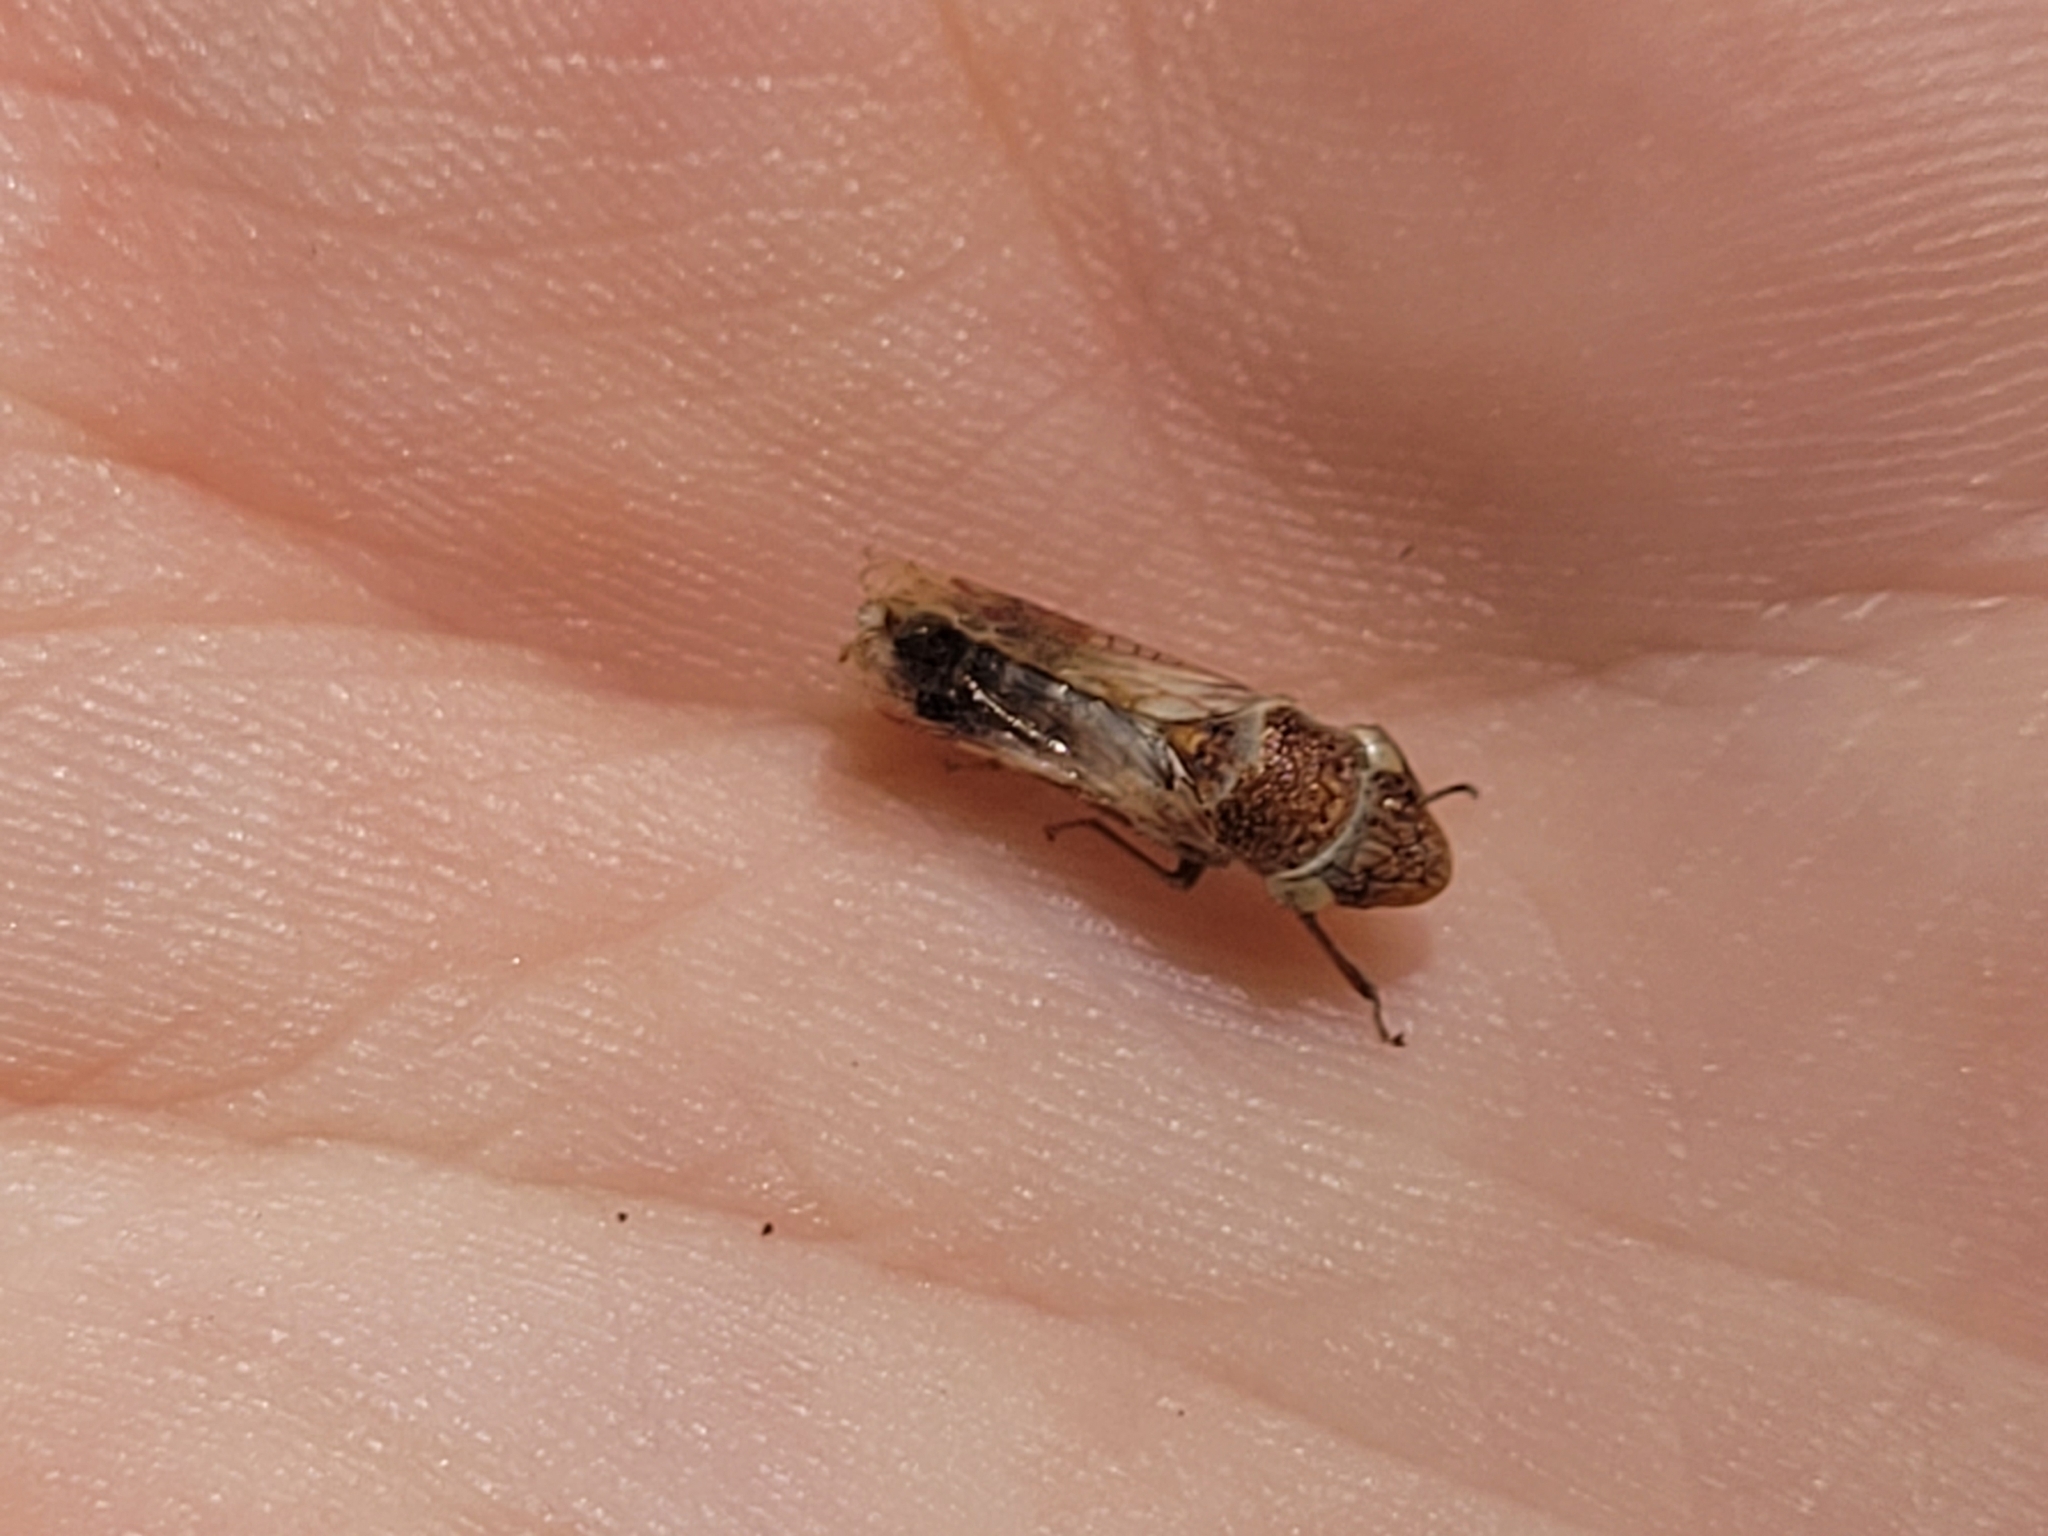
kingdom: Animalia
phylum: Arthropoda
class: Insecta
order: Hemiptera
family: Cicadellidae
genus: Homalodisca
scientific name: Homalodisca vitripennis
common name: Glassy-winged sharpshooter
